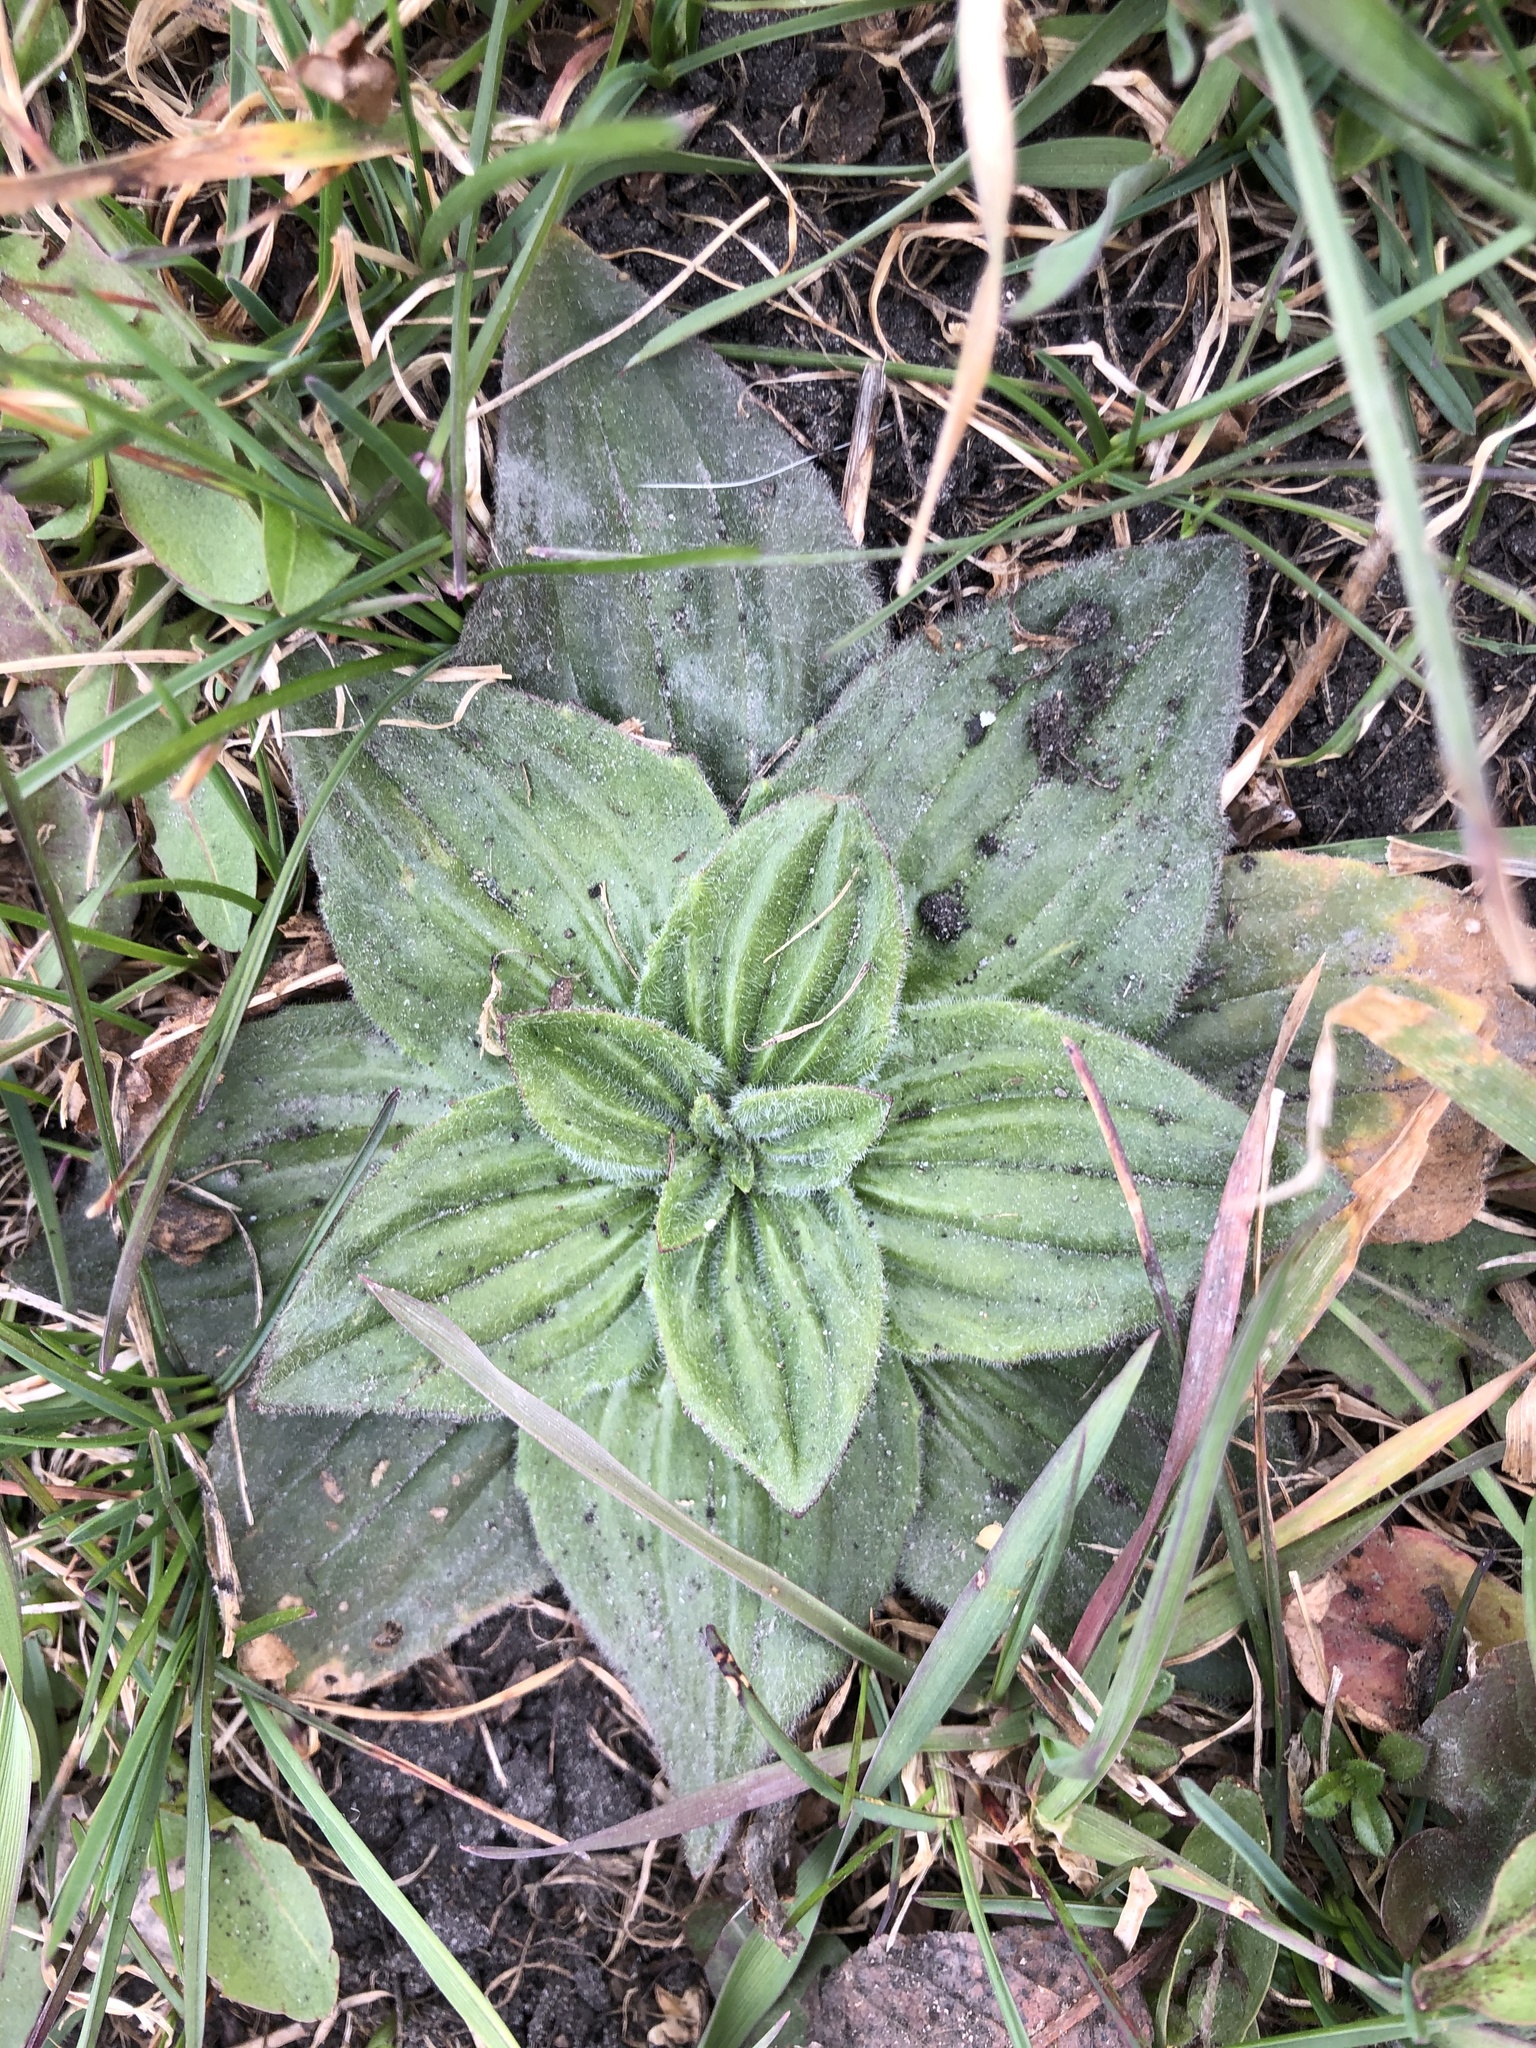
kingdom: Plantae
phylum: Tracheophyta
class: Magnoliopsida
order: Lamiales
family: Plantaginaceae
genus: Plantago
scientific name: Plantago media
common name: Hoary plantain
